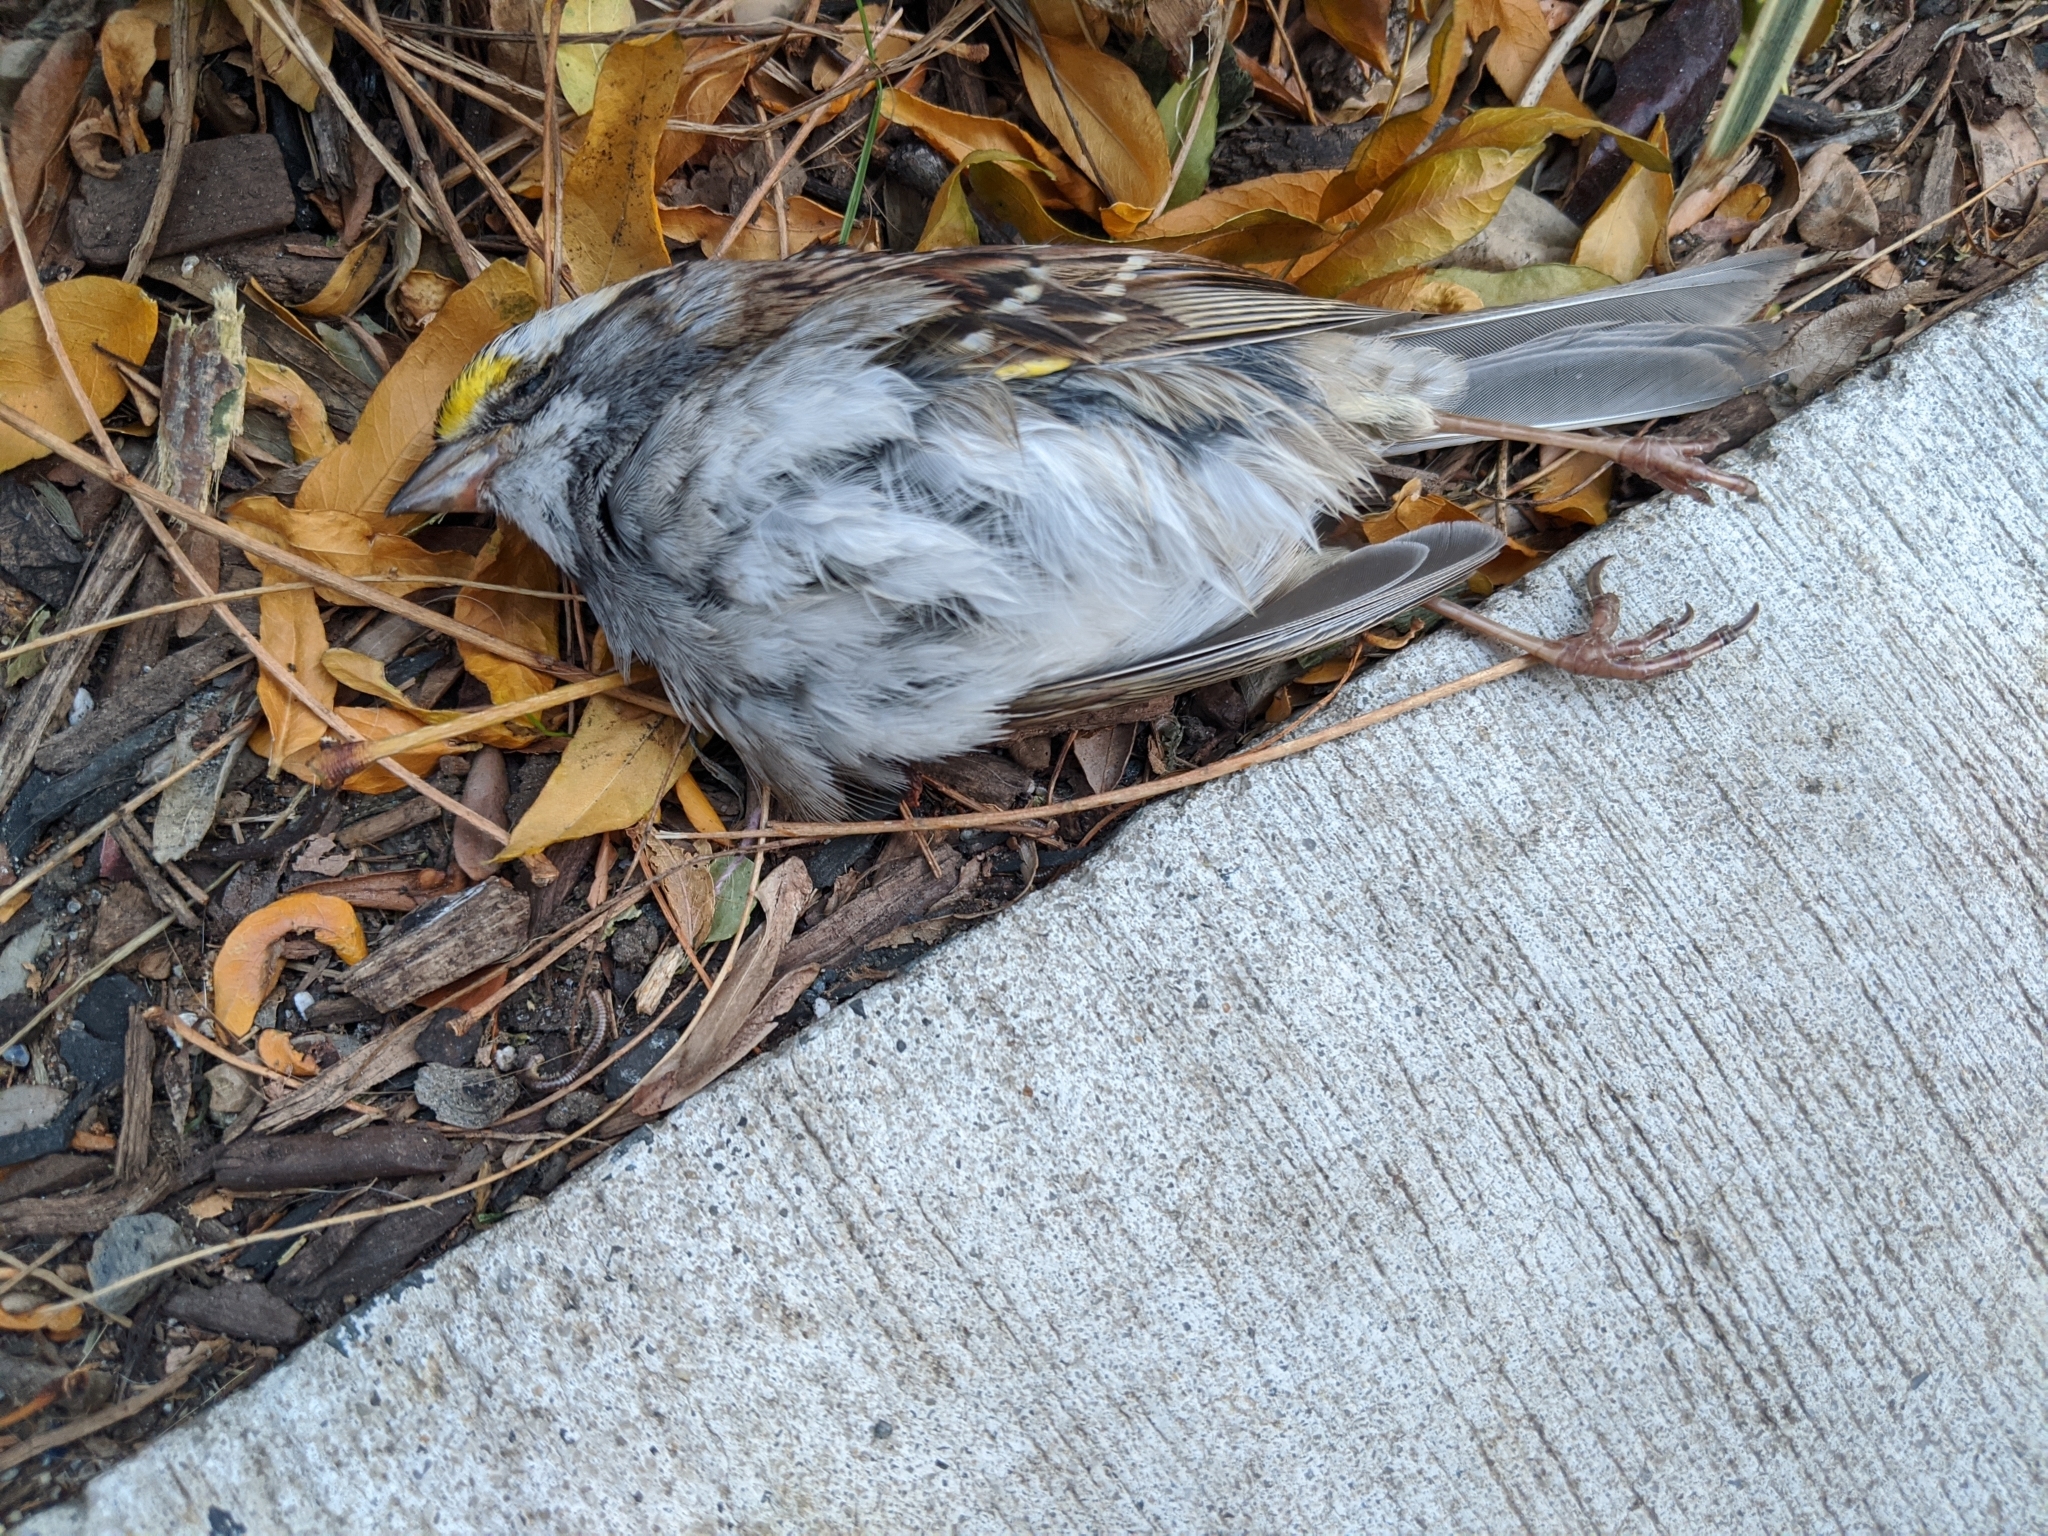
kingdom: Animalia
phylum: Chordata
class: Aves
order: Passeriformes
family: Passerellidae
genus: Zonotrichia
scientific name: Zonotrichia albicollis
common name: White-throated sparrow
